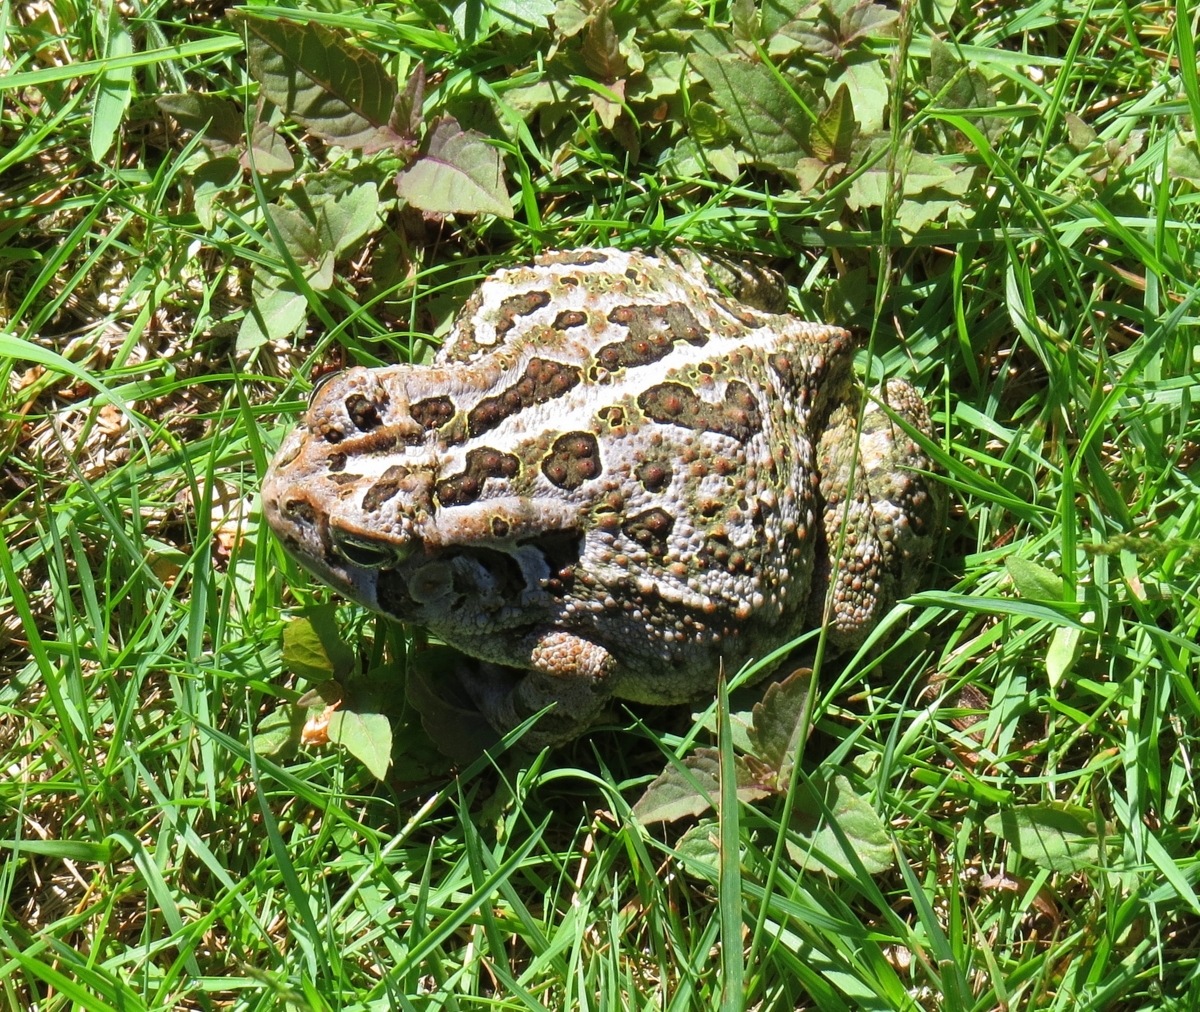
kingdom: Animalia
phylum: Chordata
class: Amphibia
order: Anura
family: Bufonidae
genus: Anaxyrus
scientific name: Anaxyrus fowleri
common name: Fowler's toad
